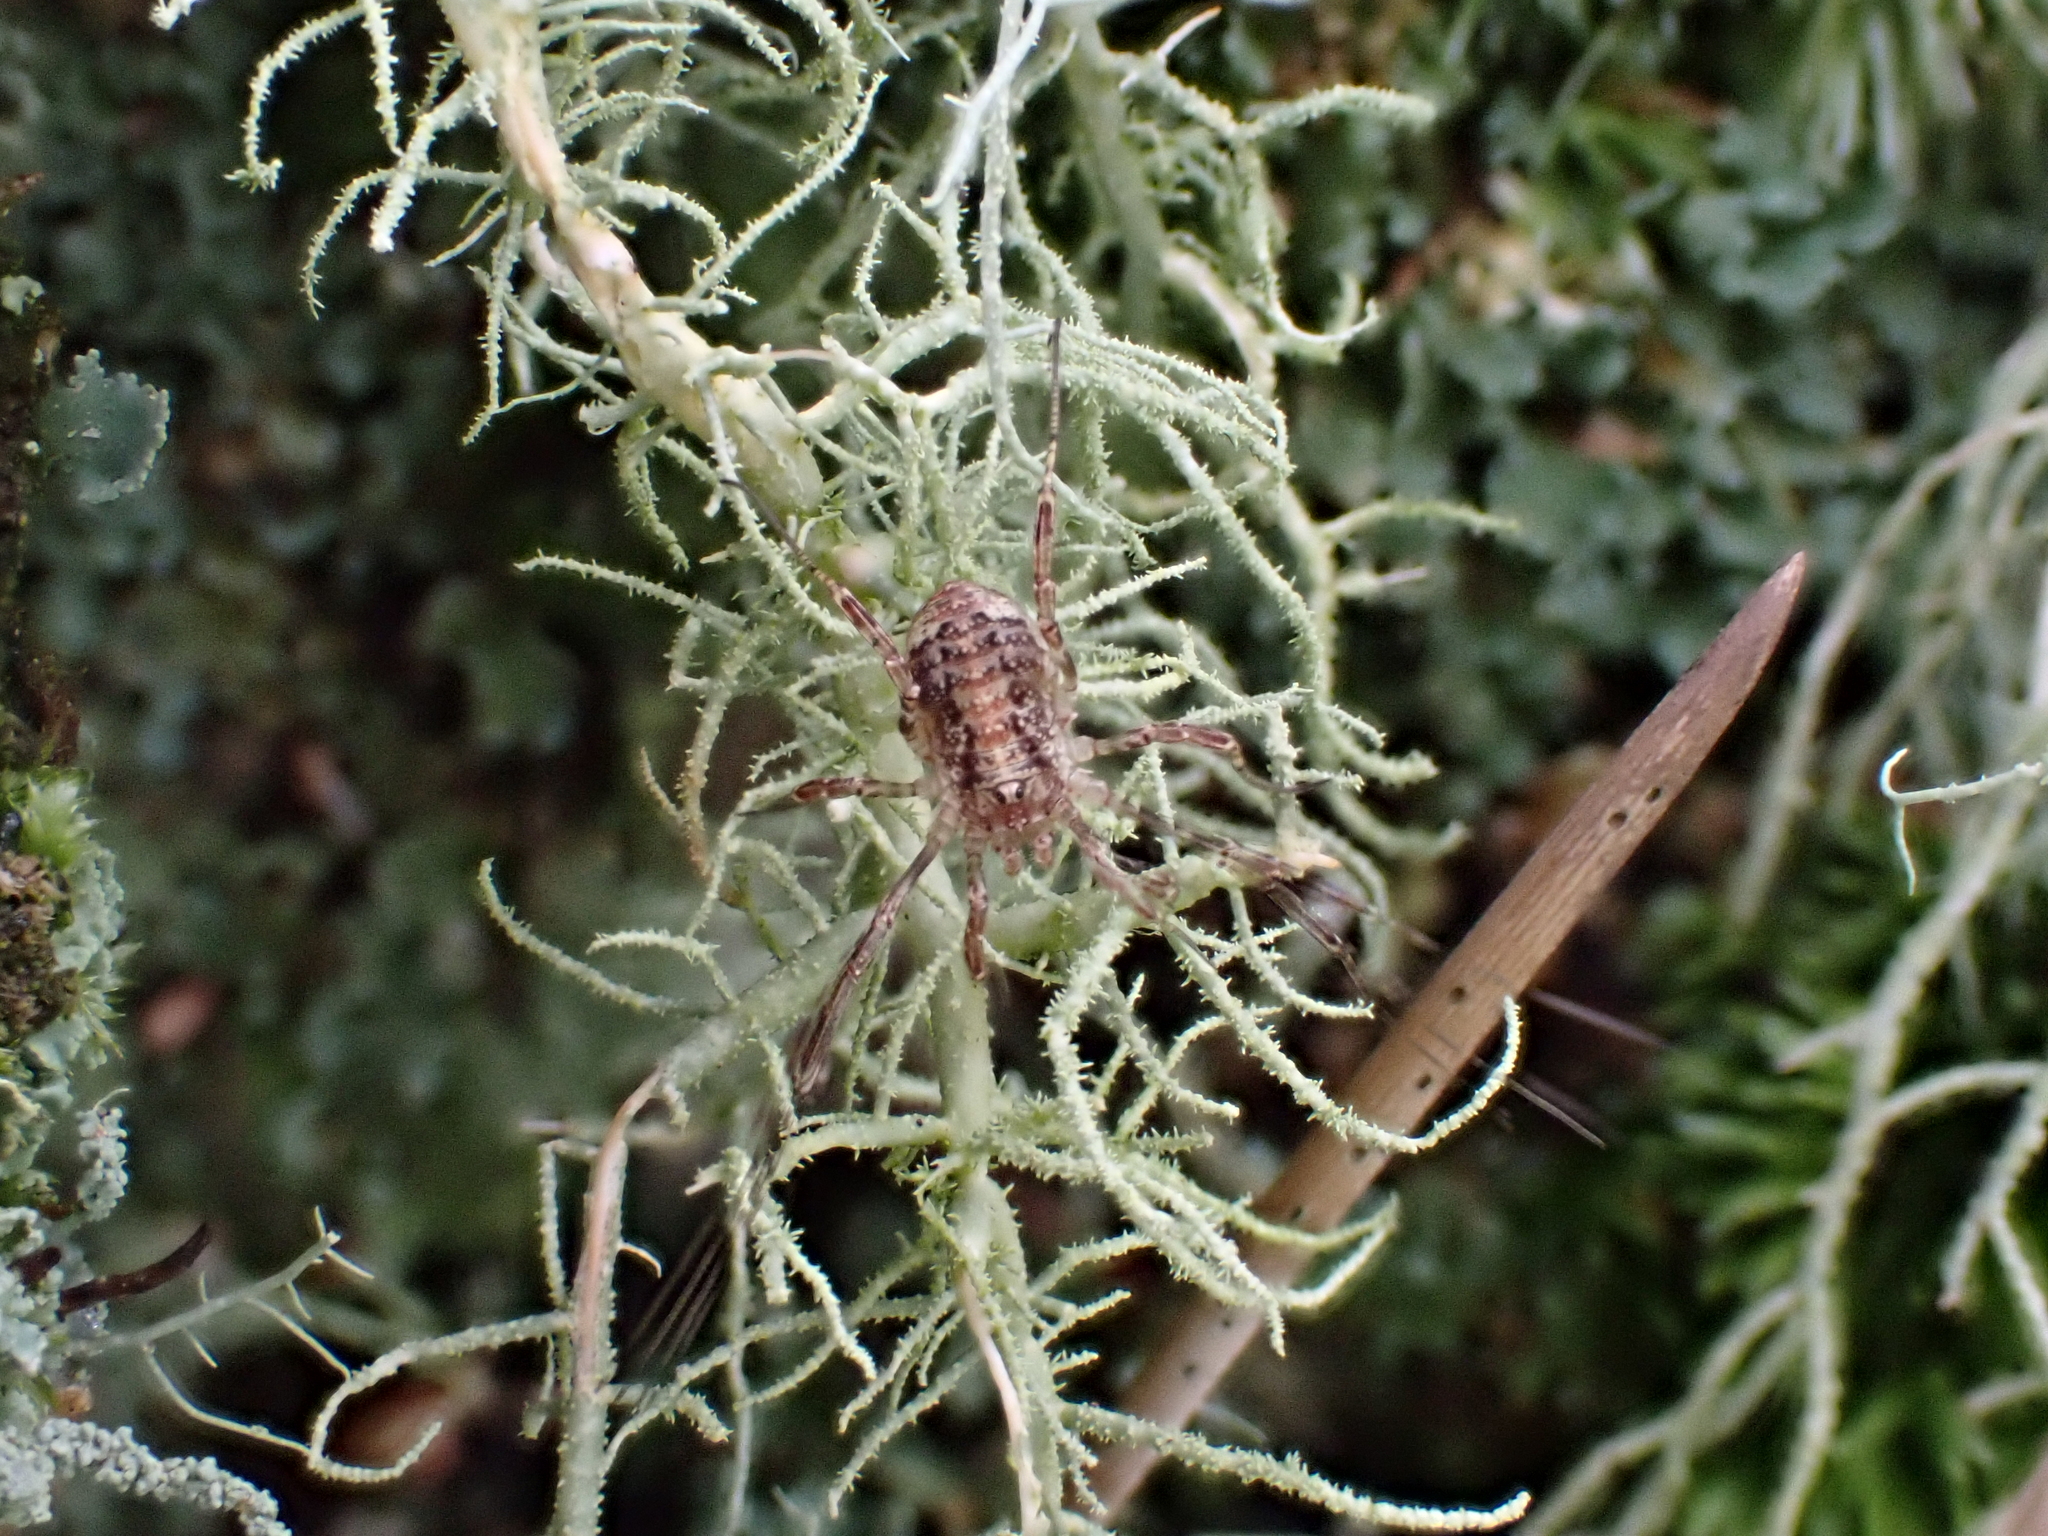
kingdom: Animalia
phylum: Arthropoda
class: Arachnida
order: Opiliones
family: Phalangiidae
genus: Paroligolophus
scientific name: Paroligolophus agrestis
